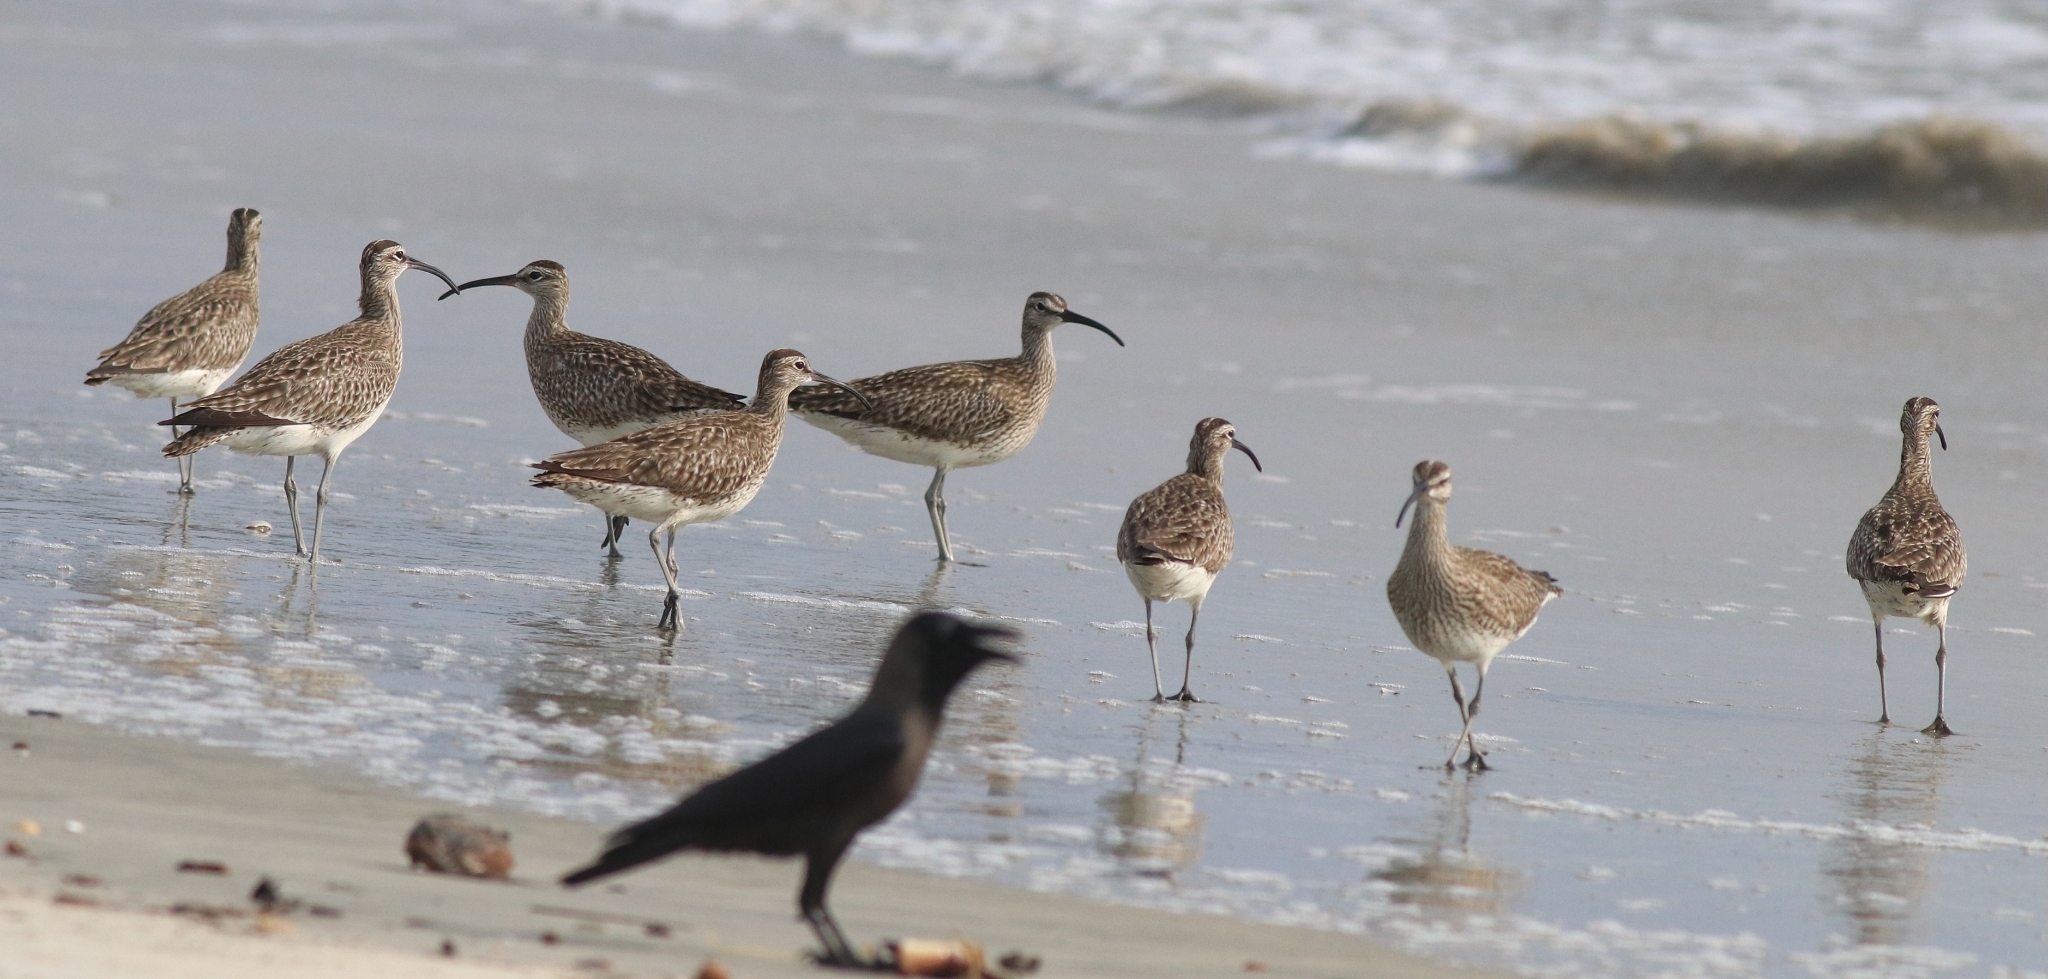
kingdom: Animalia
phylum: Chordata
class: Aves
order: Charadriiformes
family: Scolopacidae
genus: Numenius
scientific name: Numenius phaeopus
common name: Whimbrel
